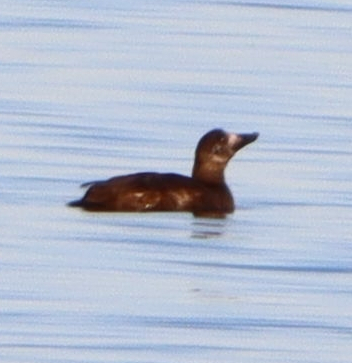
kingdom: Animalia
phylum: Chordata
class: Aves
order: Anseriformes
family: Anatidae
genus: Melanitta
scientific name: Melanitta deglandi
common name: White-winged scoter
